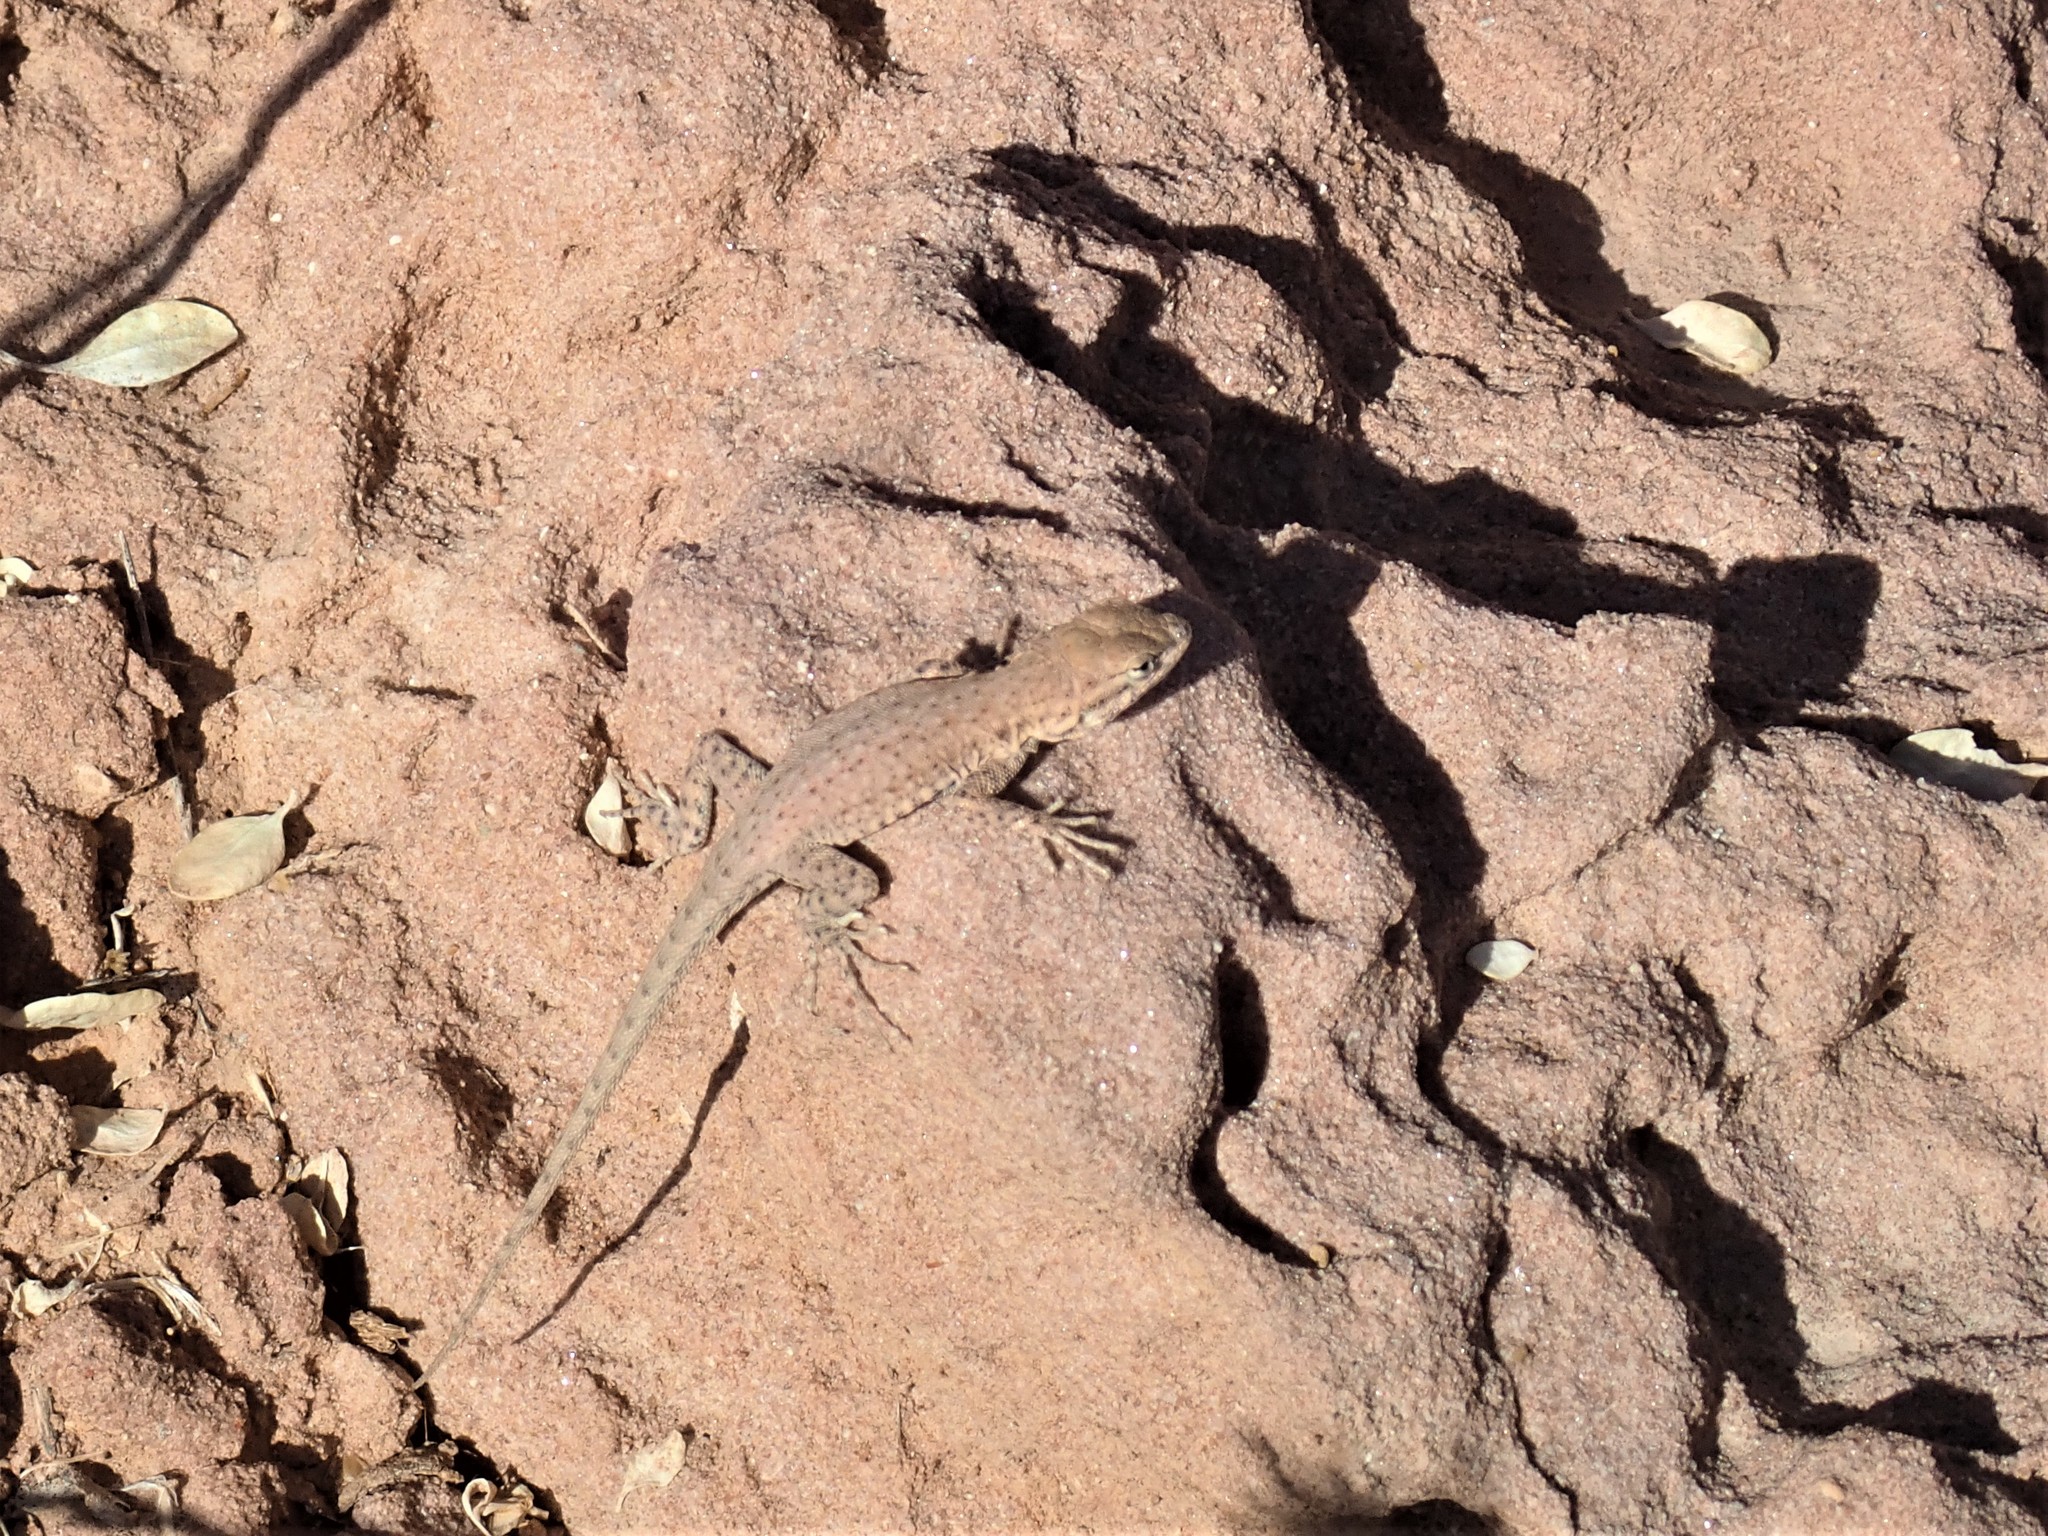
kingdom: Animalia
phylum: Chordata
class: Squamata
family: Phrynosomatidae
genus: Uta
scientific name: Uta stansburiana
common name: Side-blotched lizard
